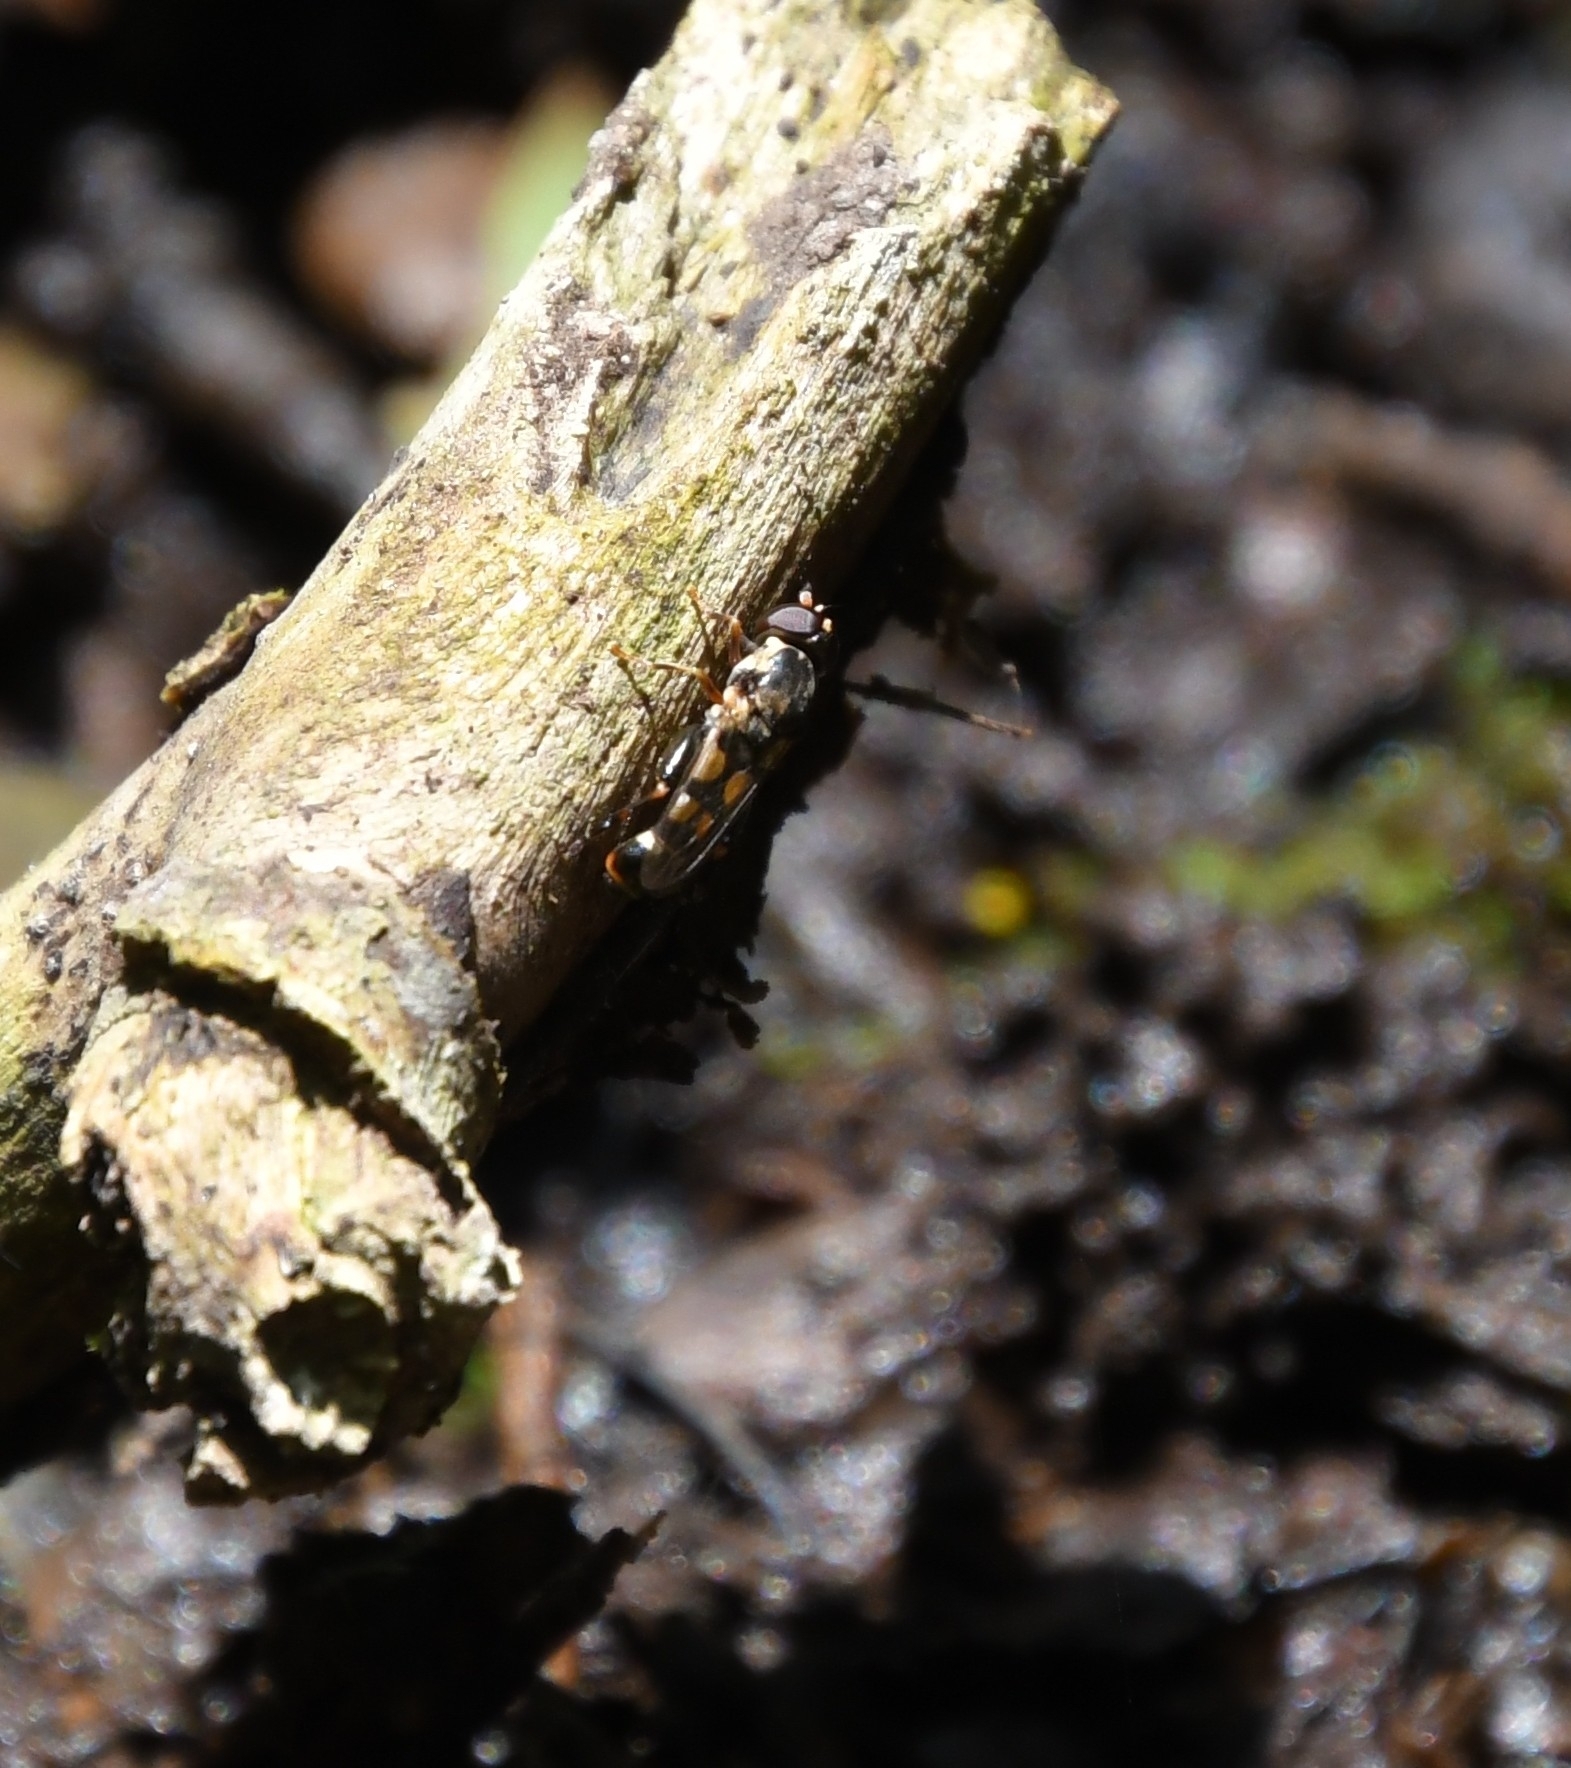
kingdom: Animalia
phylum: Arthropoda
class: Insecta
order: Diptera
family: Syrphidae
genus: Syritta
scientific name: Syritta pipiens
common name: Hover fly
